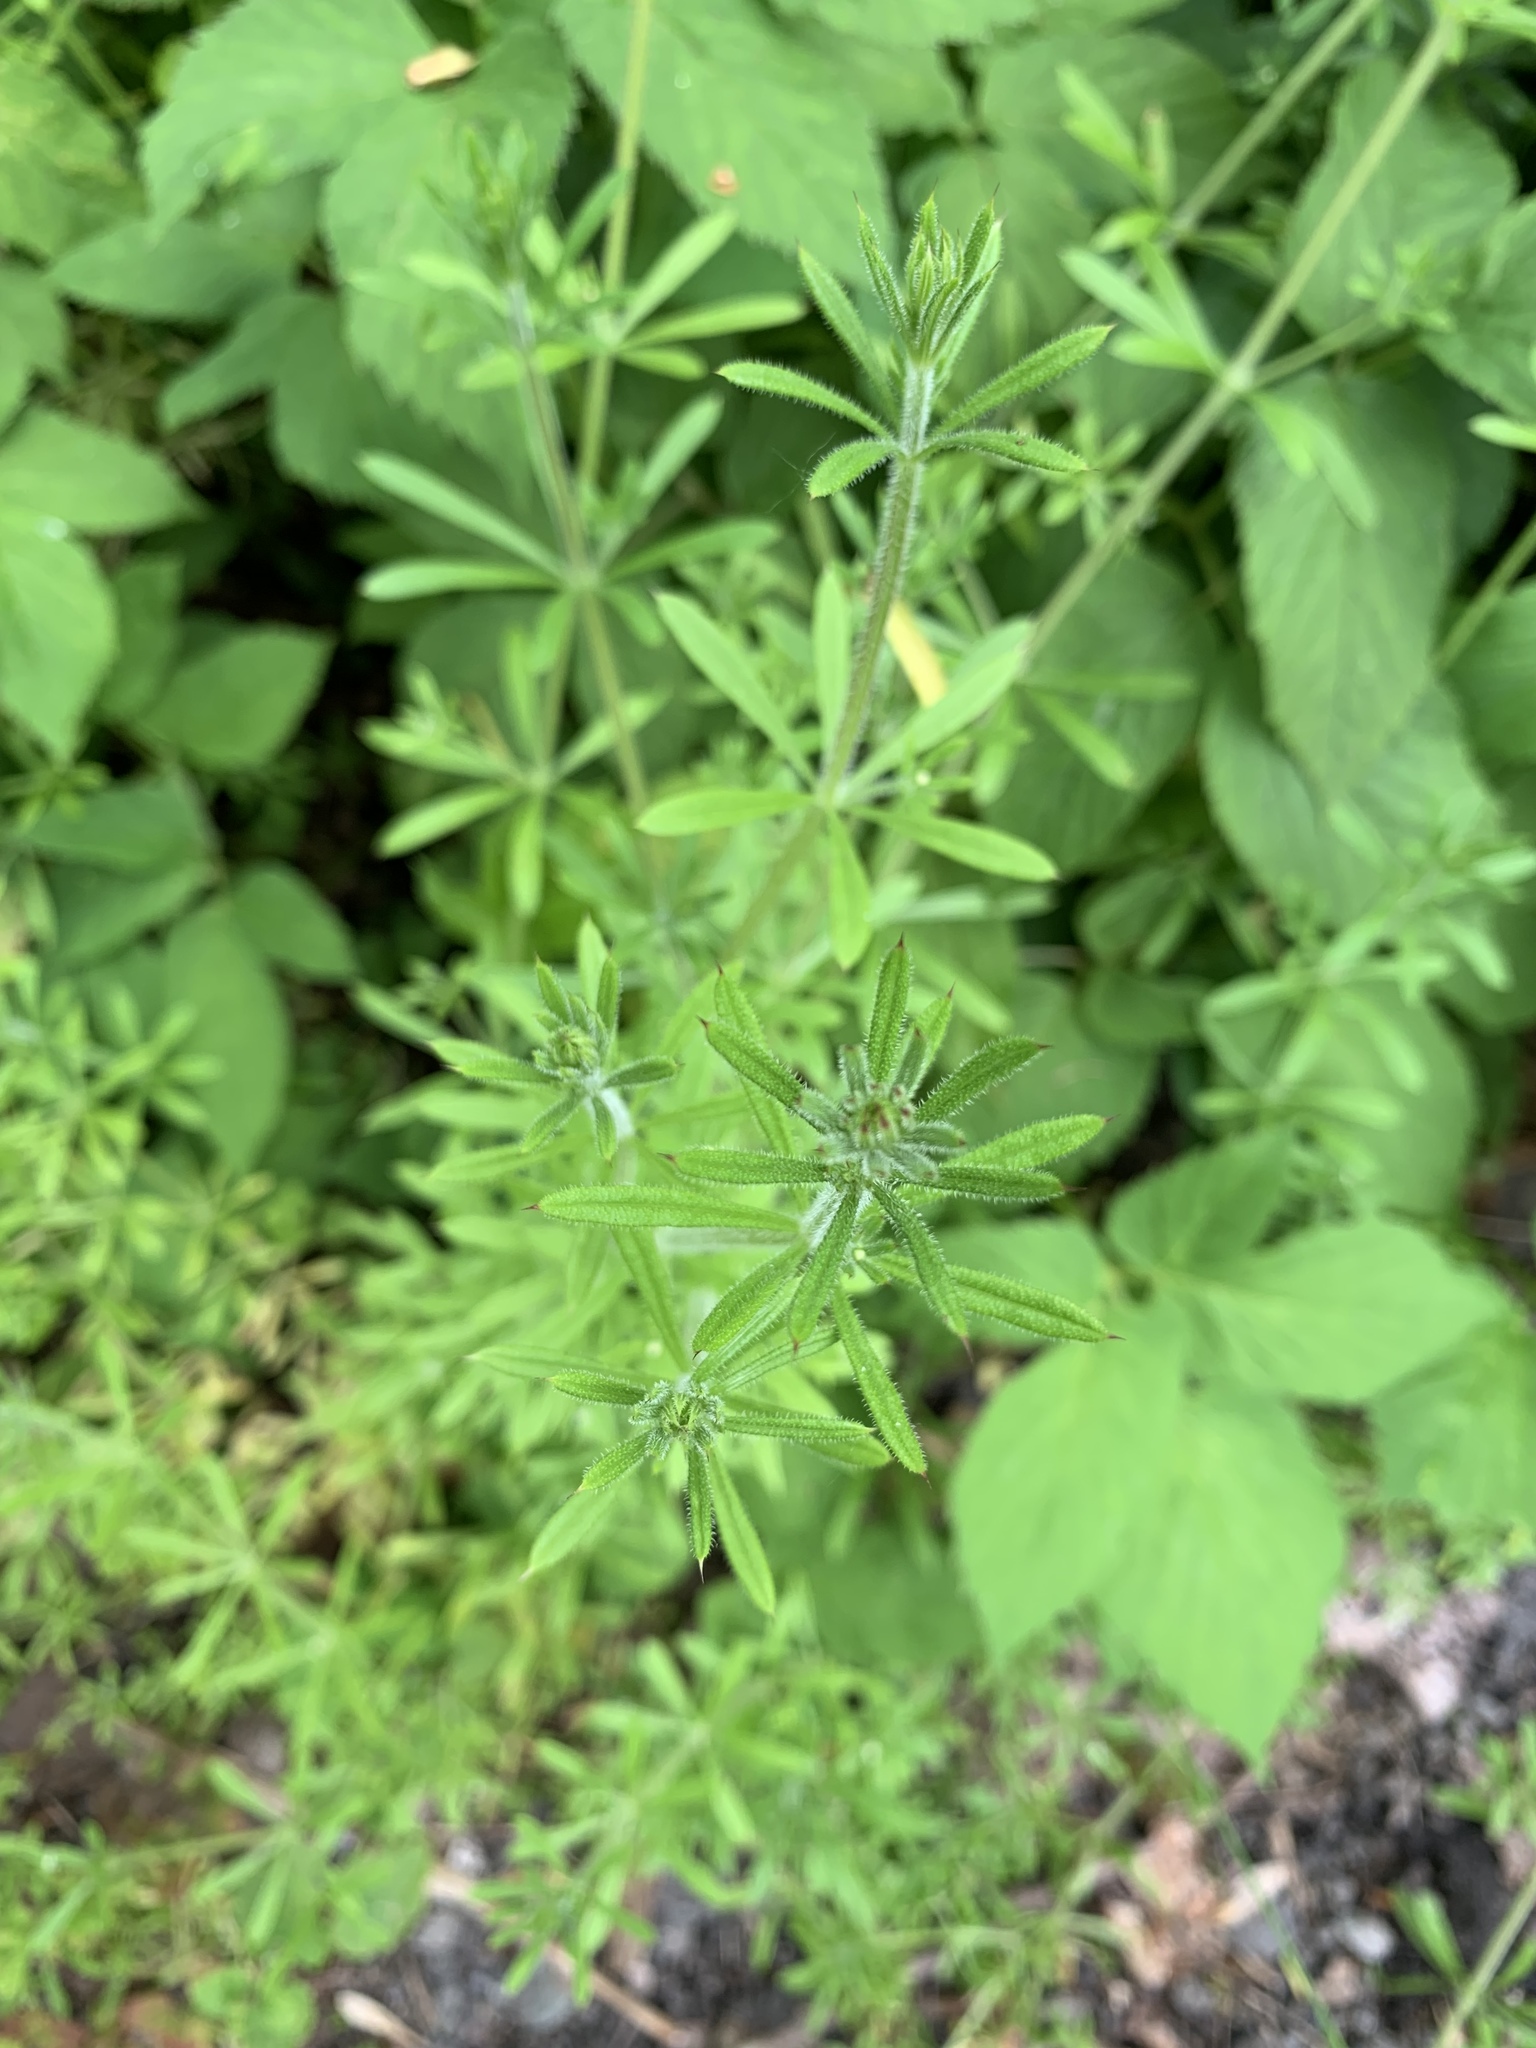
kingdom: Plantae
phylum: Tracheophyta
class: Magnoliopsida
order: Gentianales
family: Rubiaceae
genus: Galium
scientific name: Galium aparine
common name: Cleavers
